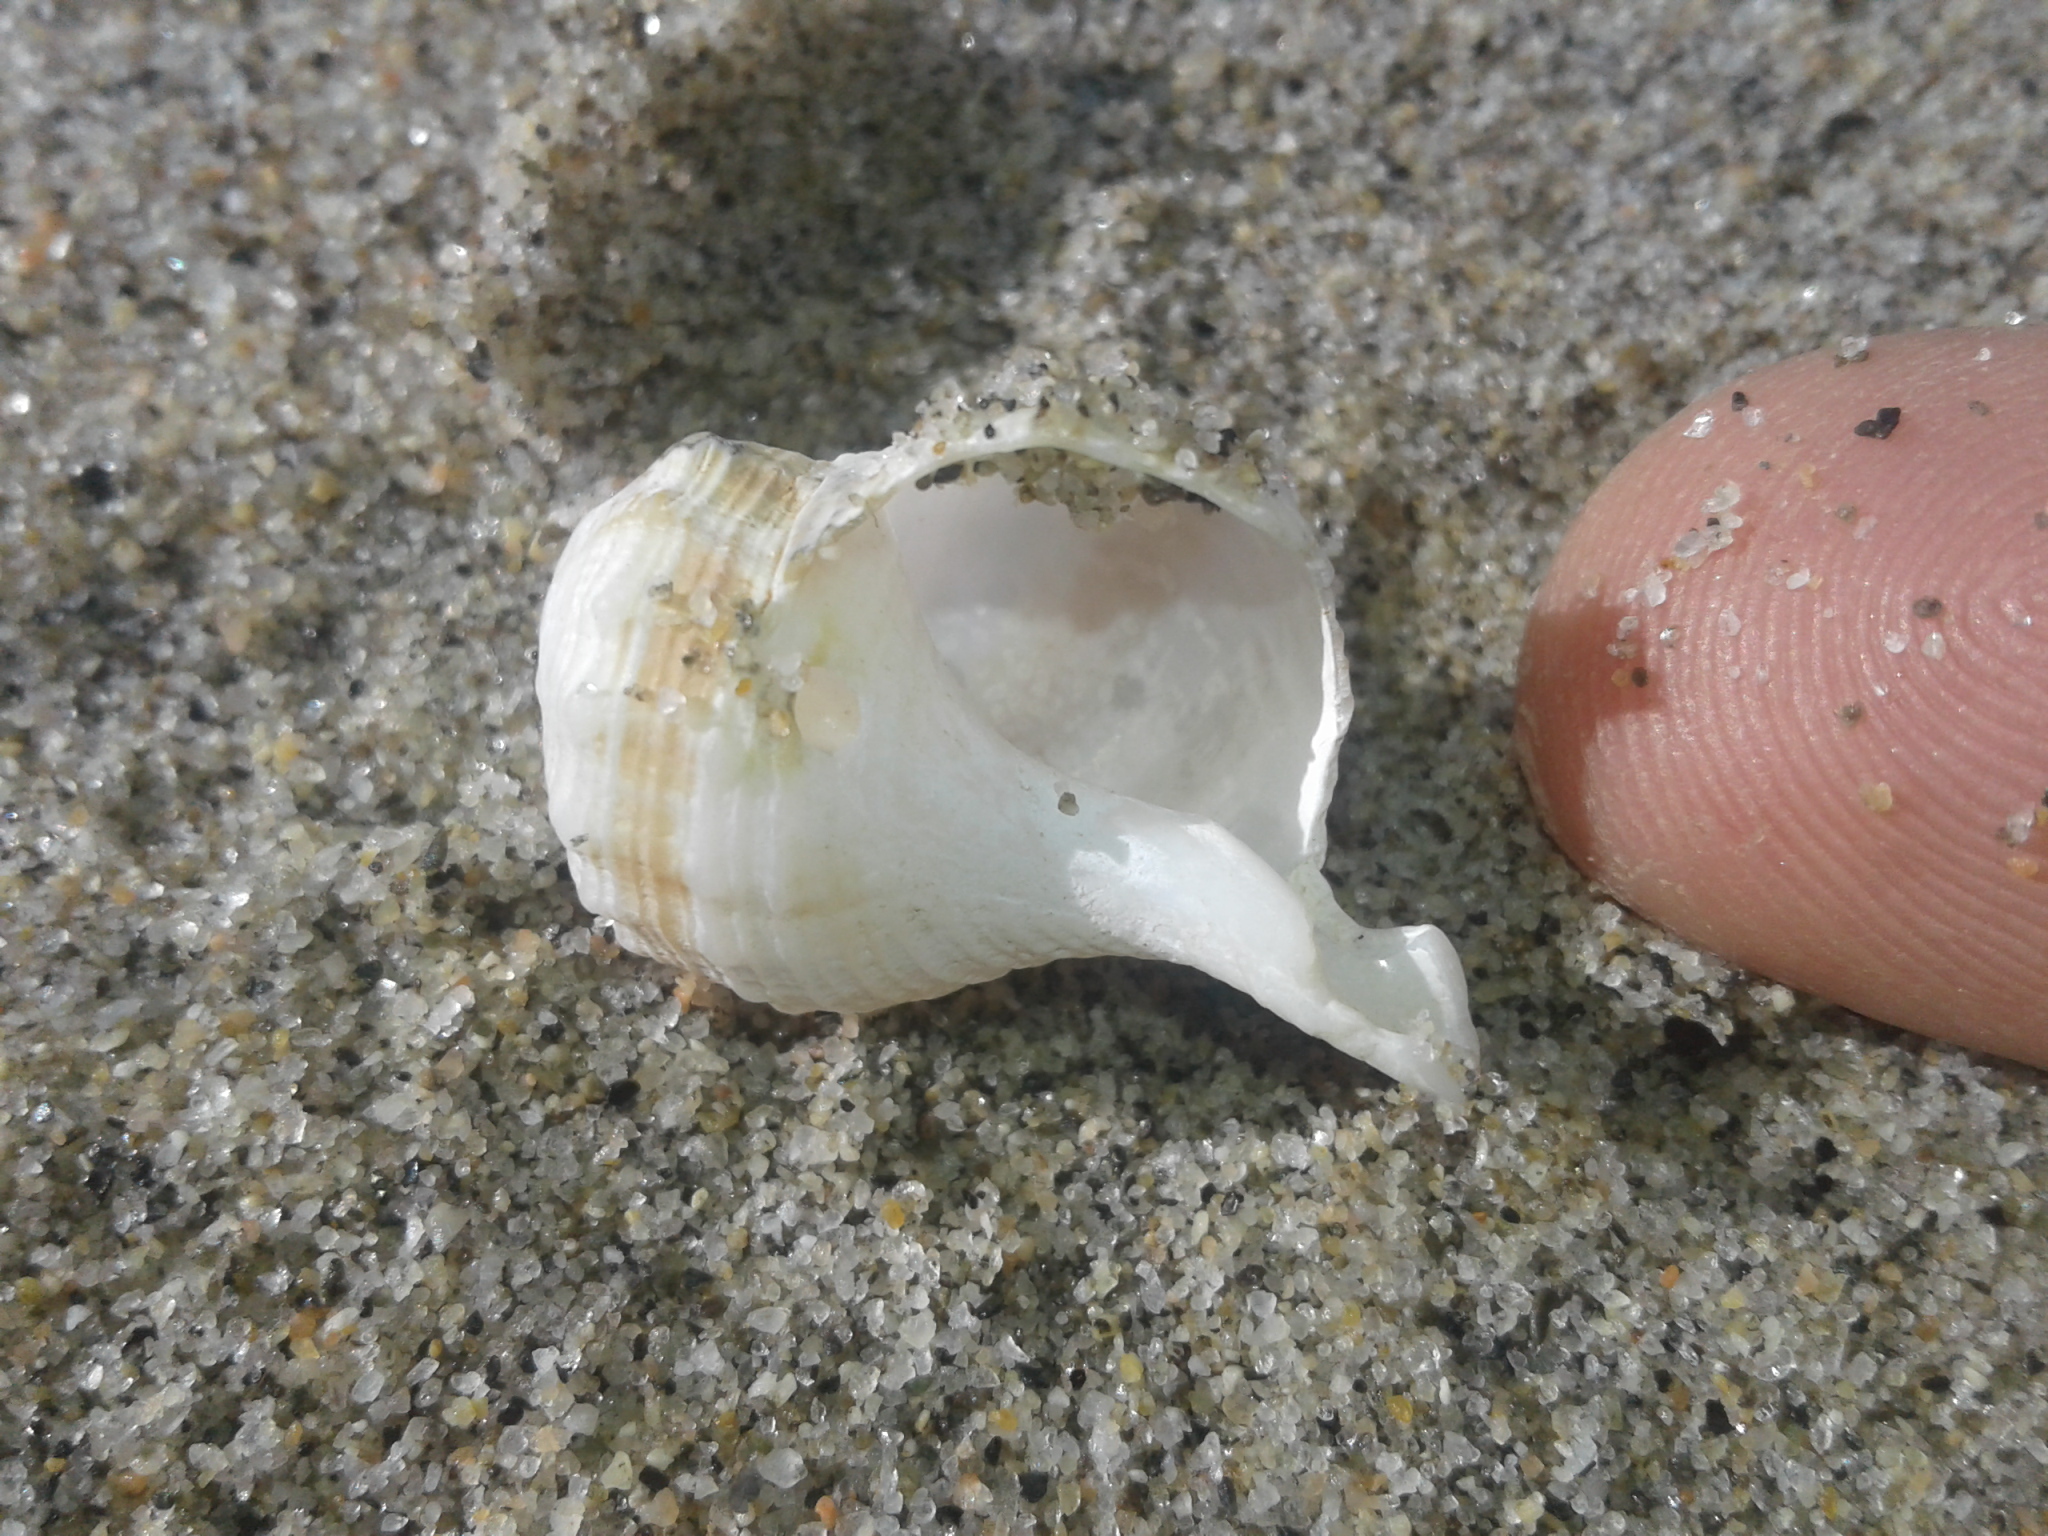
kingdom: Animalia
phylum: Mollusca
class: Gastropoda
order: Neogastropoda
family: Prosiphonidae
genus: Austrofusus
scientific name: Austrofusus glans
